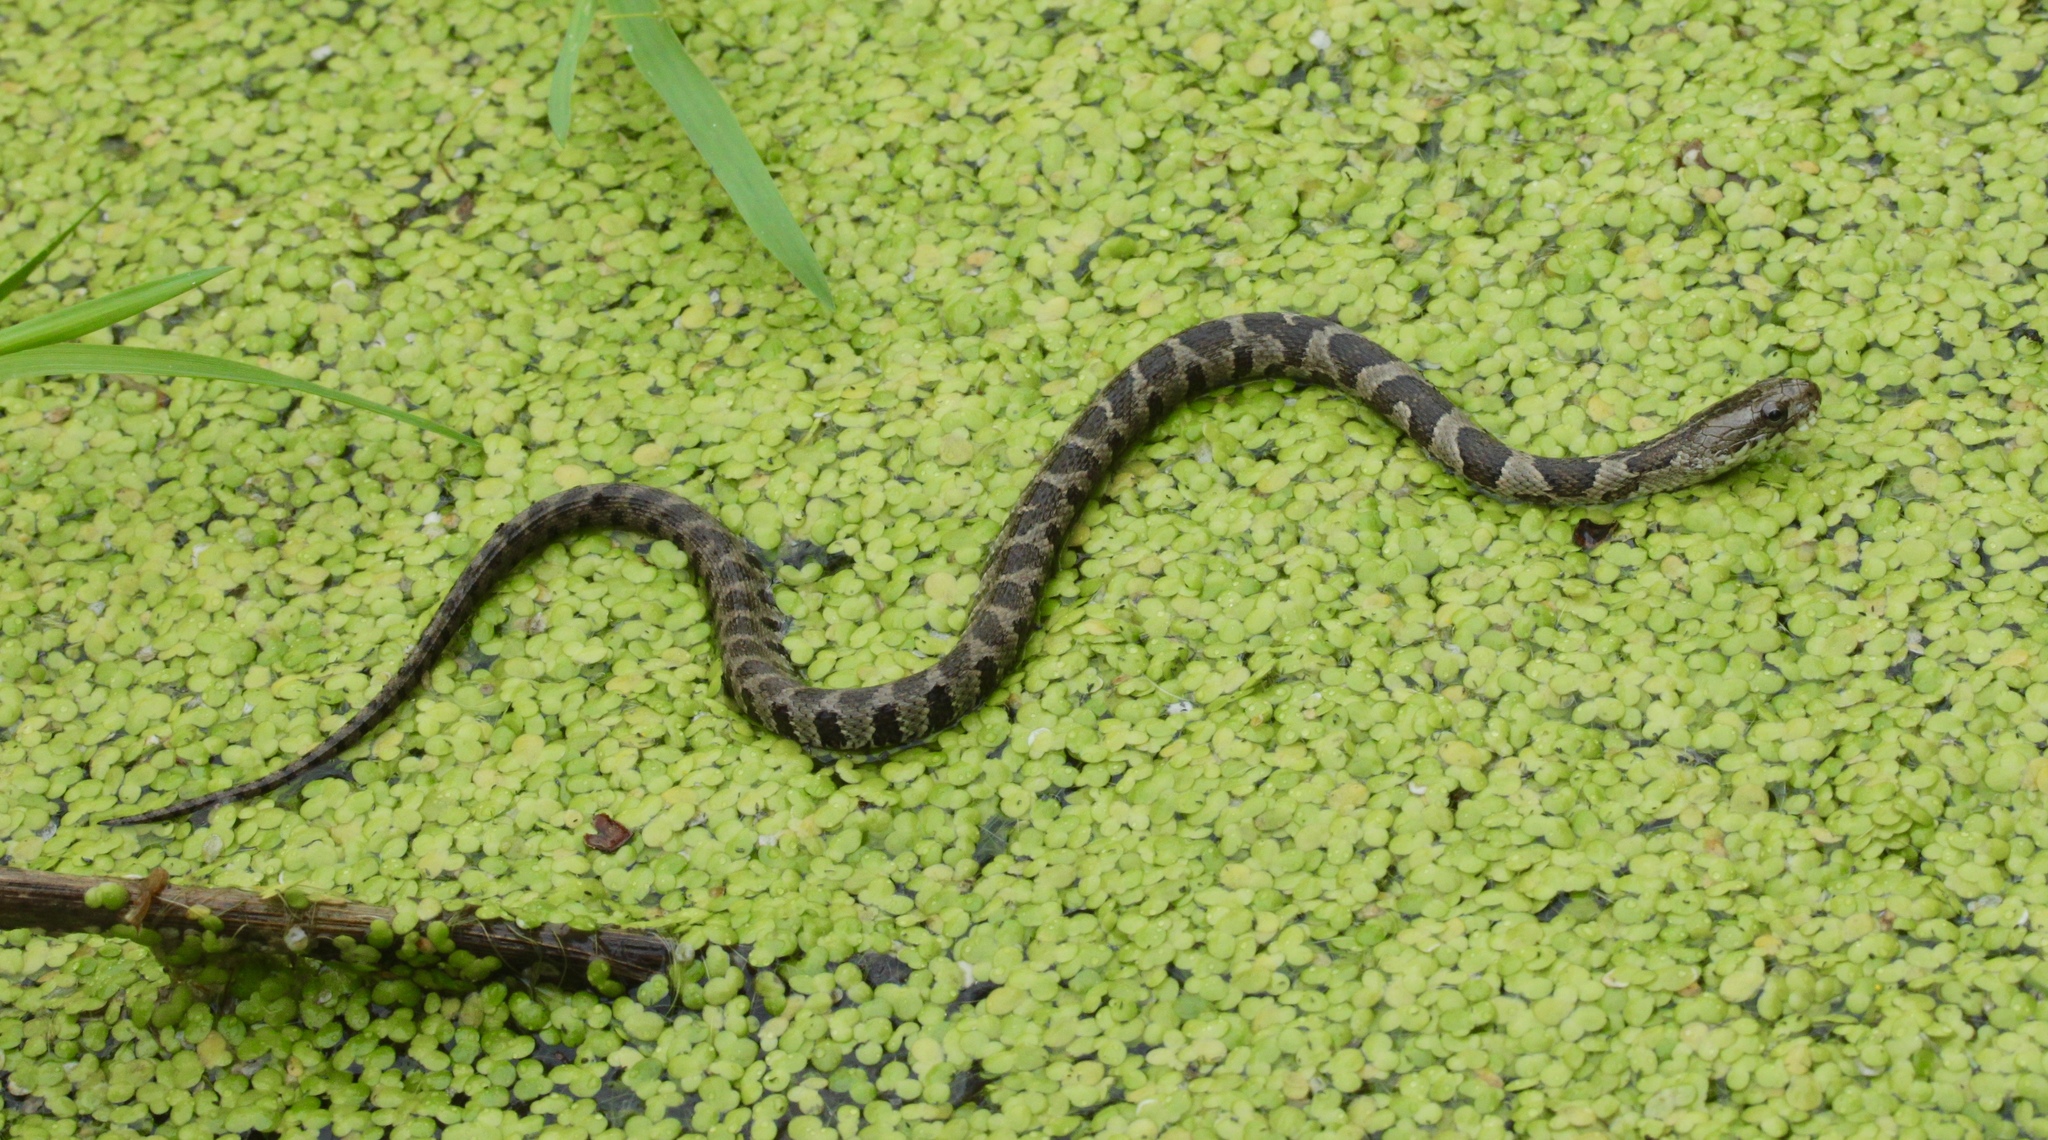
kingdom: Animalia
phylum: Chordata
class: Squamata
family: Colubridae
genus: Nerodia
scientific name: Nerodia sipedon
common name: Northern water snake
